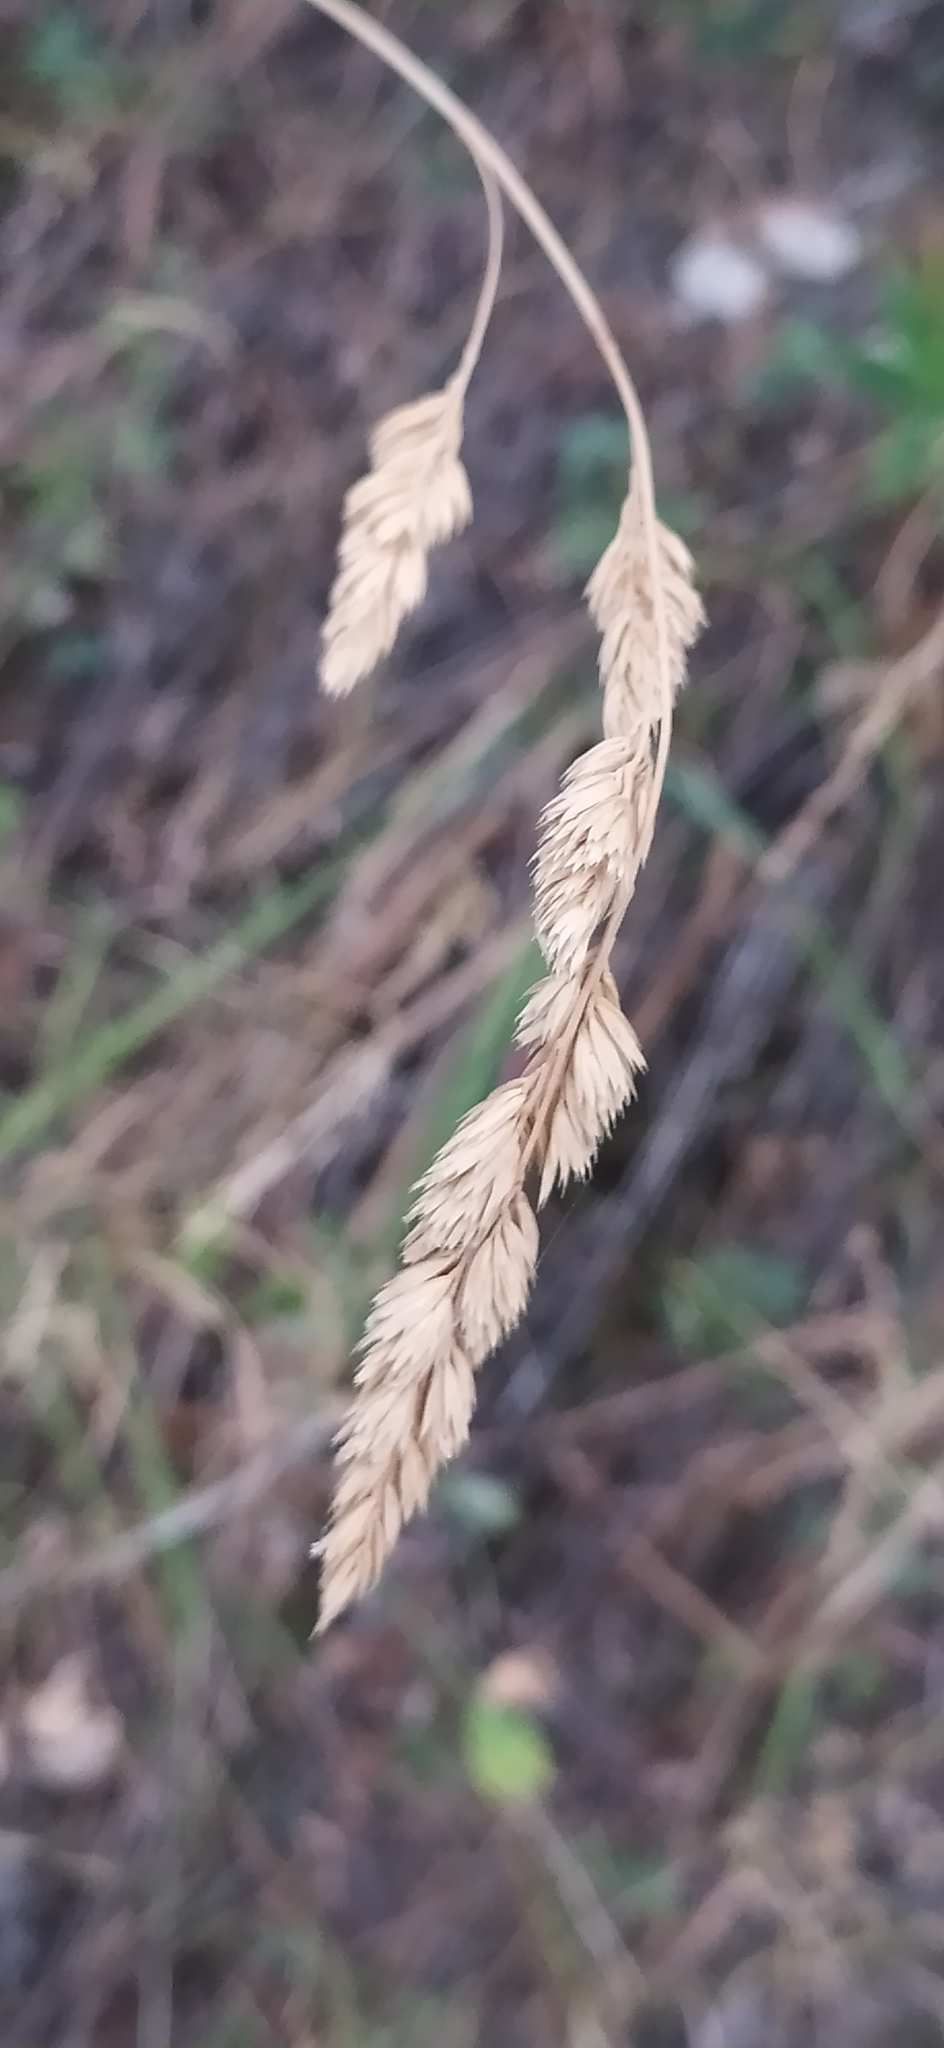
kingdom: Plantae
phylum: Tracheophyta
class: Liliopsida
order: Poales
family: Poaceae
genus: Dactylis
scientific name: Dactylis glomerata
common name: Orchardgrass
